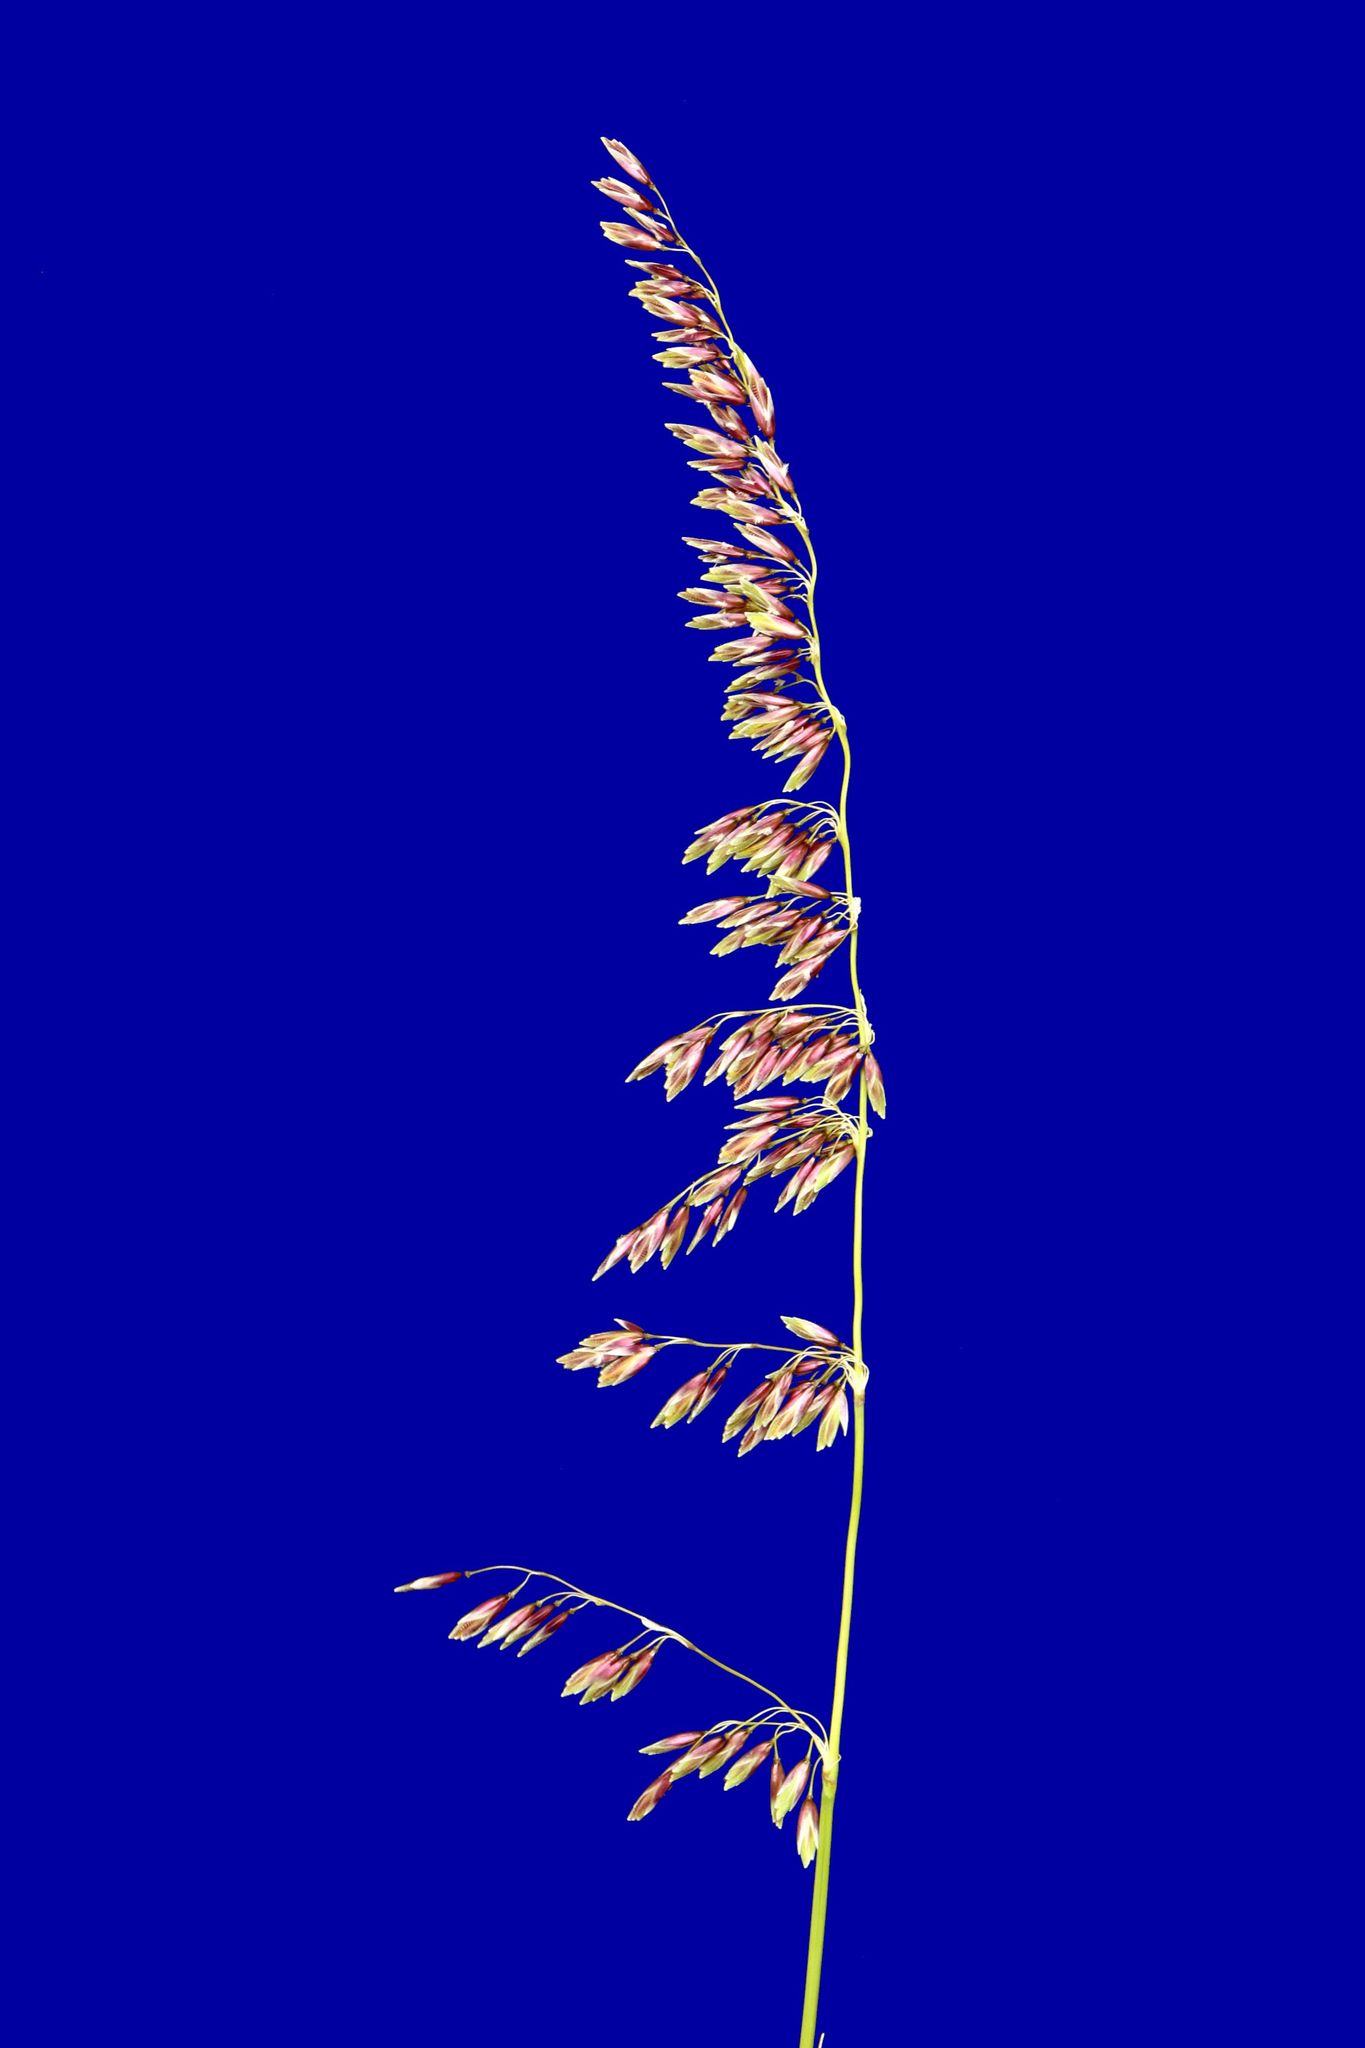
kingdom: Plantae
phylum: Tracheophyta
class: Liliopsida
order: Poales
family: Poaceae
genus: Ehrharta
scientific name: Ehrharta calycina
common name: Perennial veldtgrass
